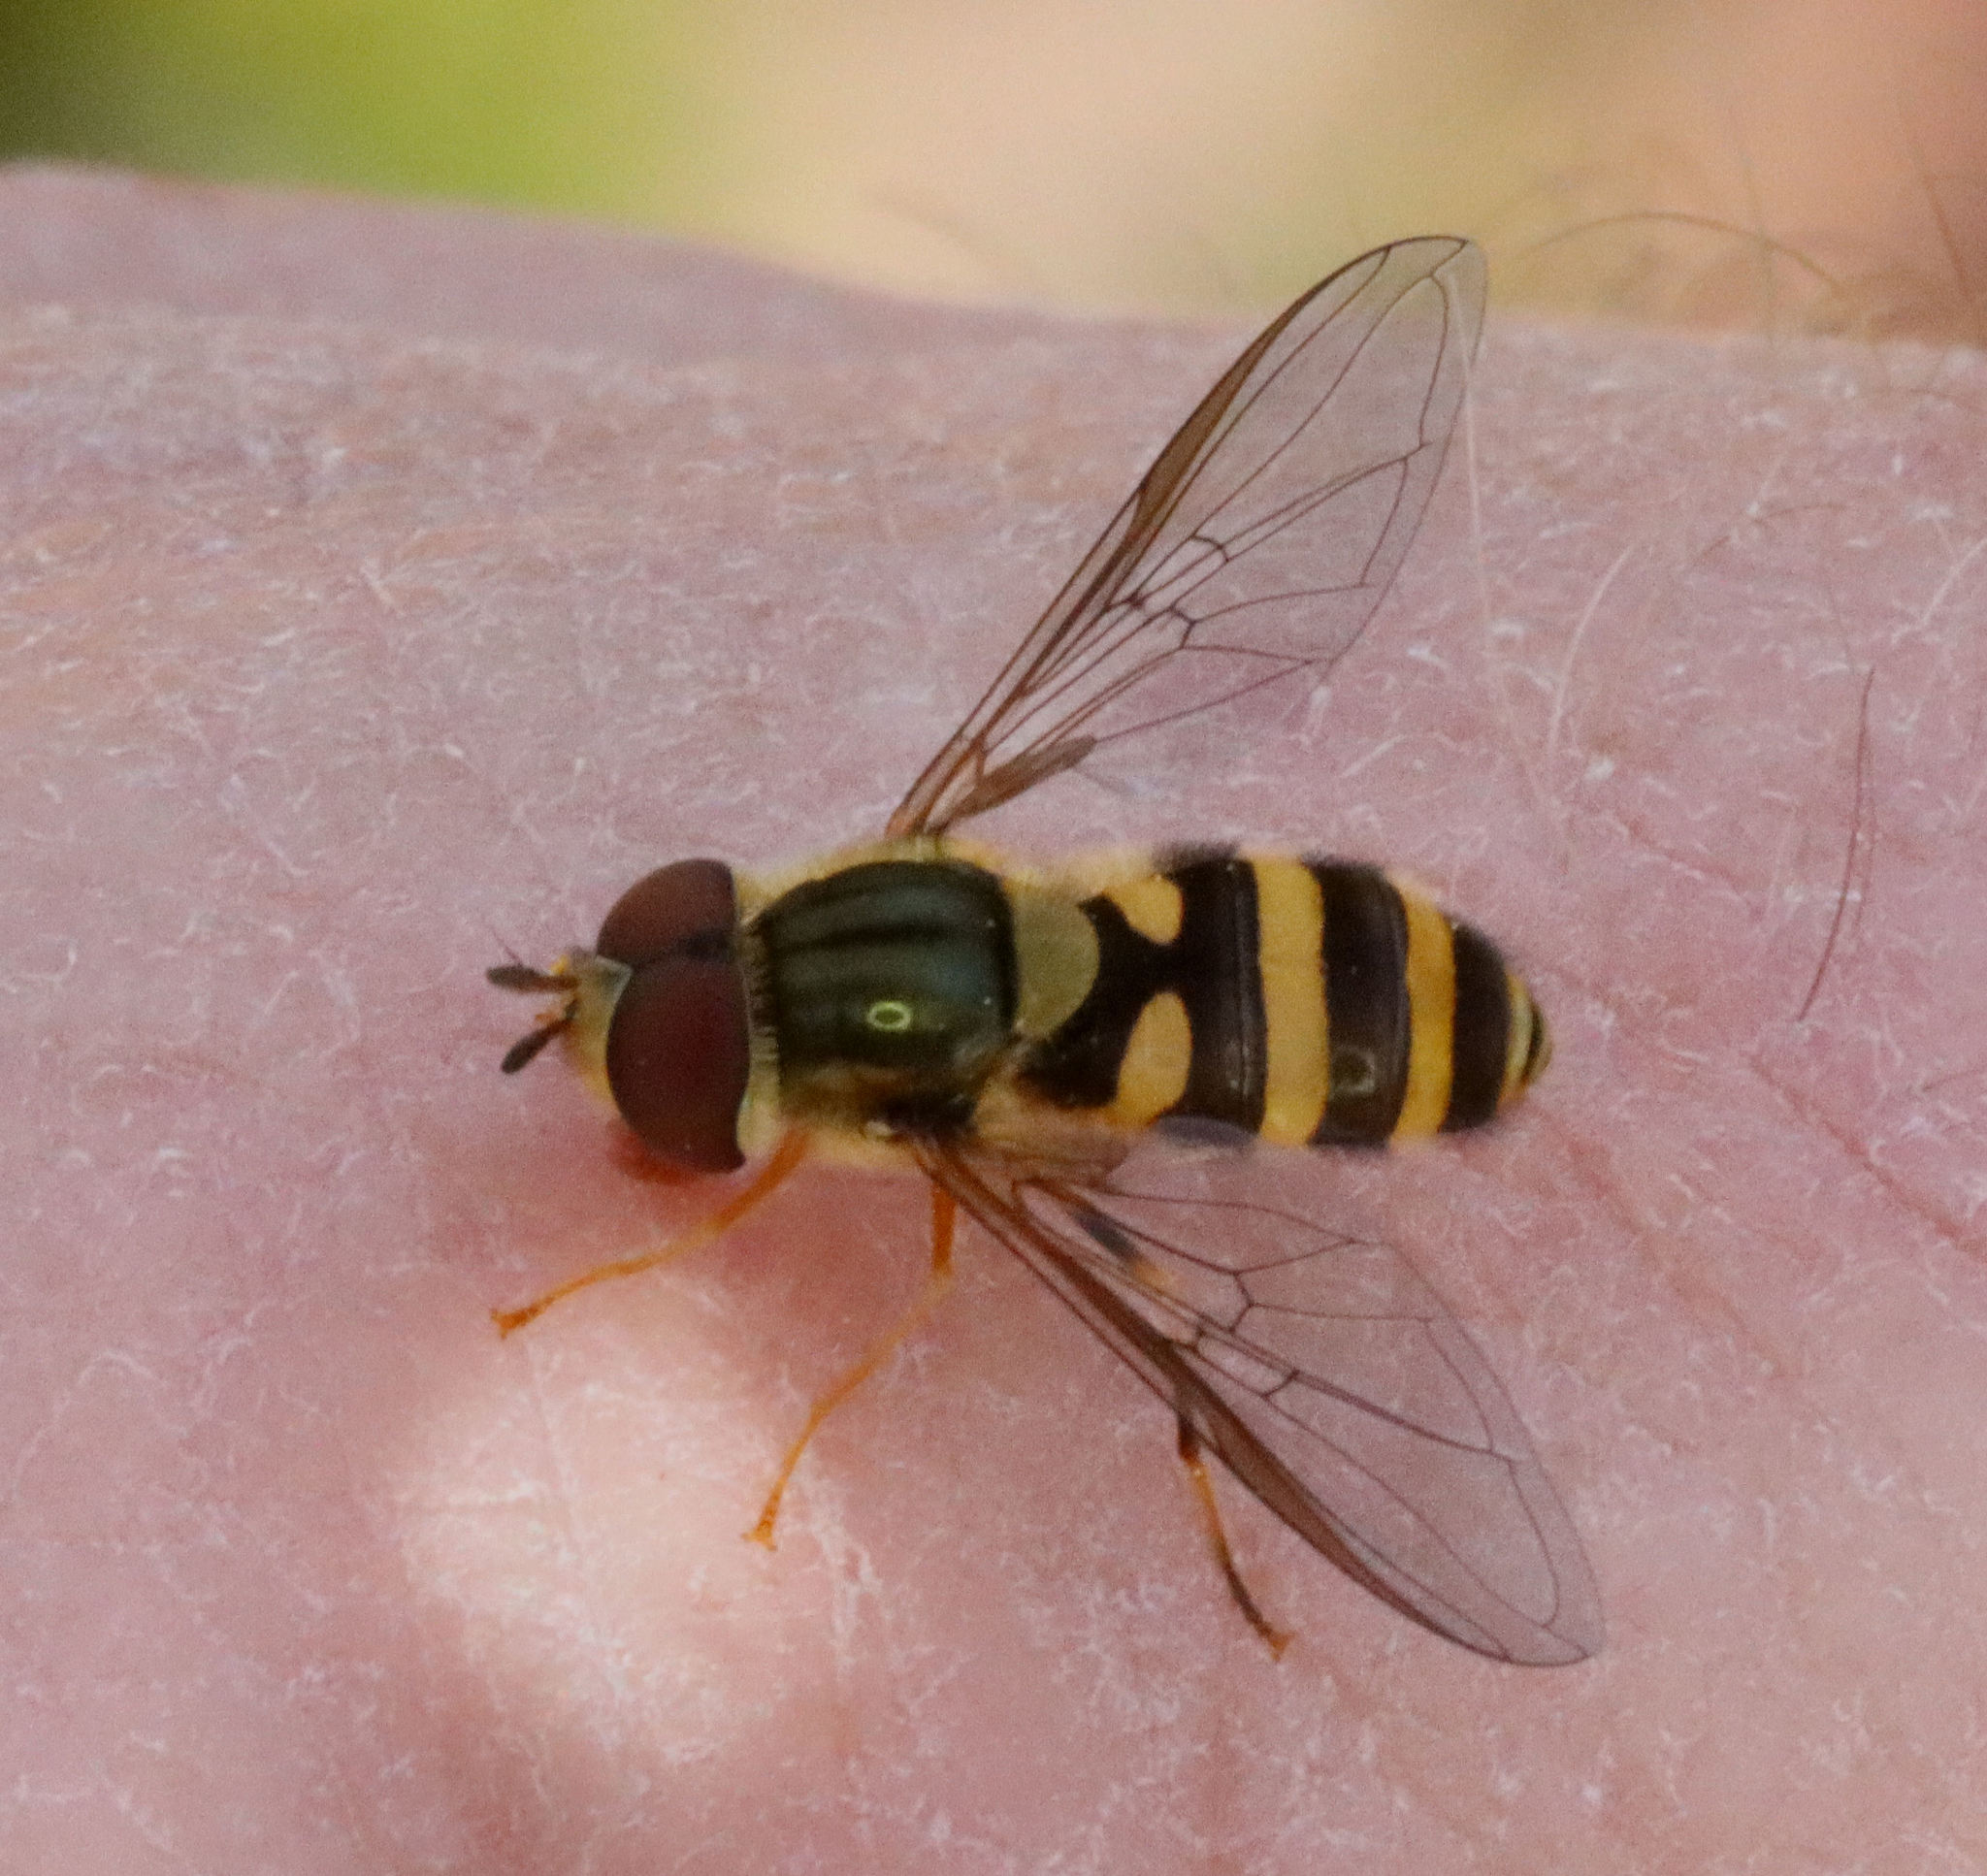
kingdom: Animalia
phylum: Arthropoda
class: Insecta
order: Diptera
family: Syrphidae
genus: Syrphus
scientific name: Syrphus
